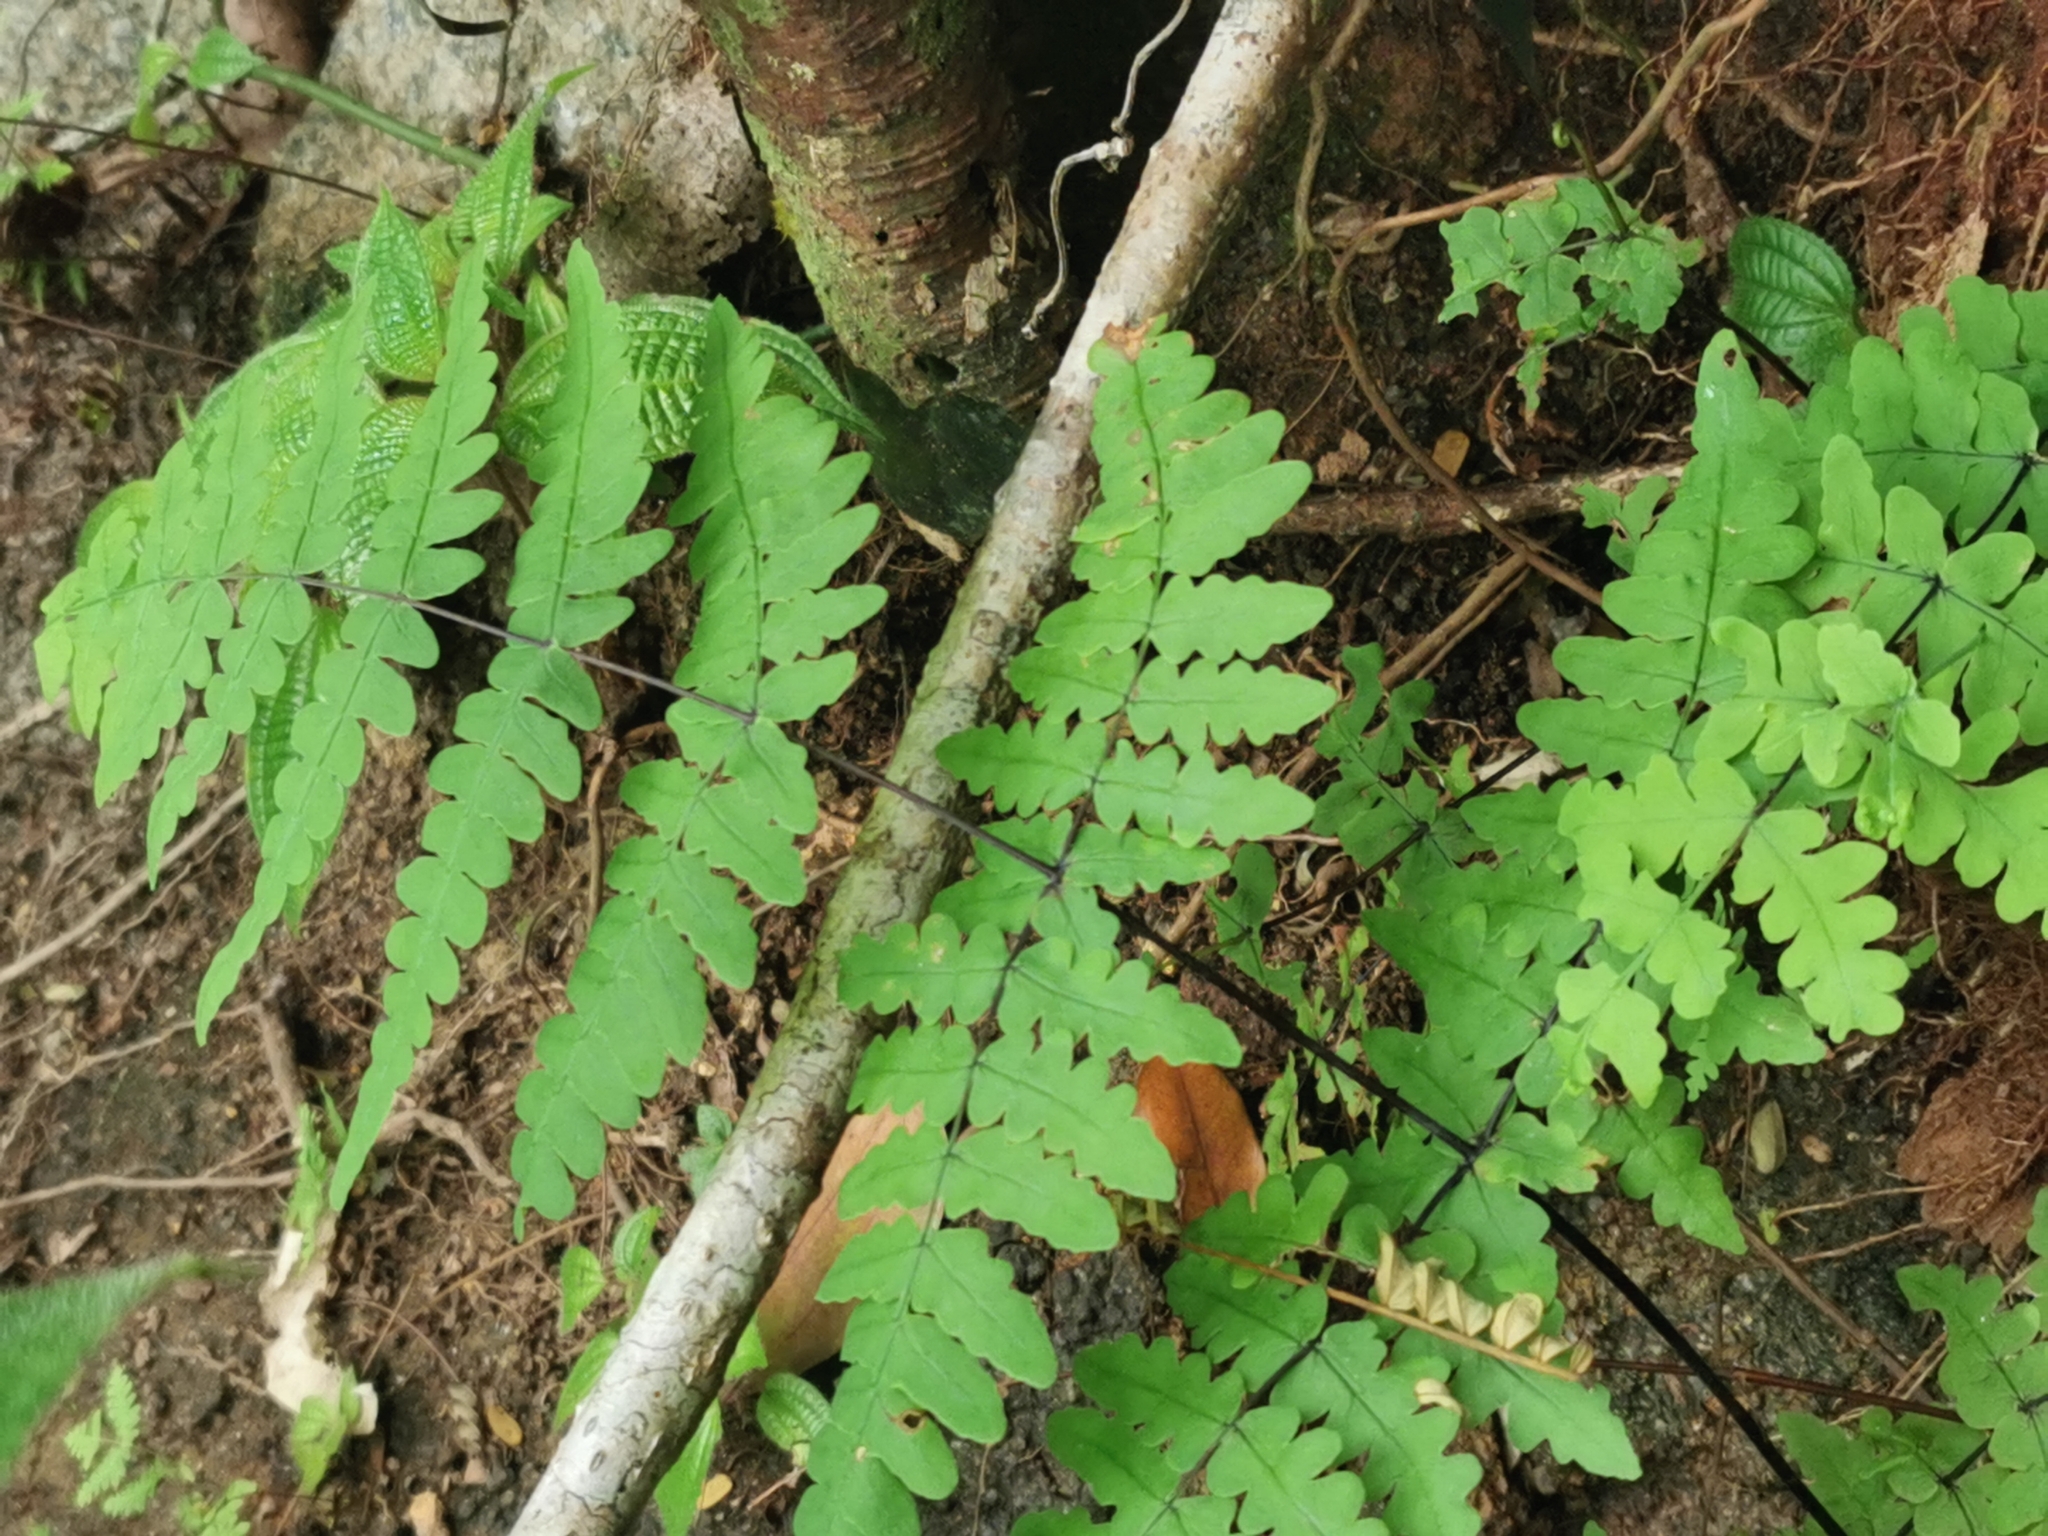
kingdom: Plantae
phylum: Tracheophyta
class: Polypodiopsida
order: Polypodiales
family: Dennstaedtiaceae
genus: Histiopteris
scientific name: Histiopteris incisa
